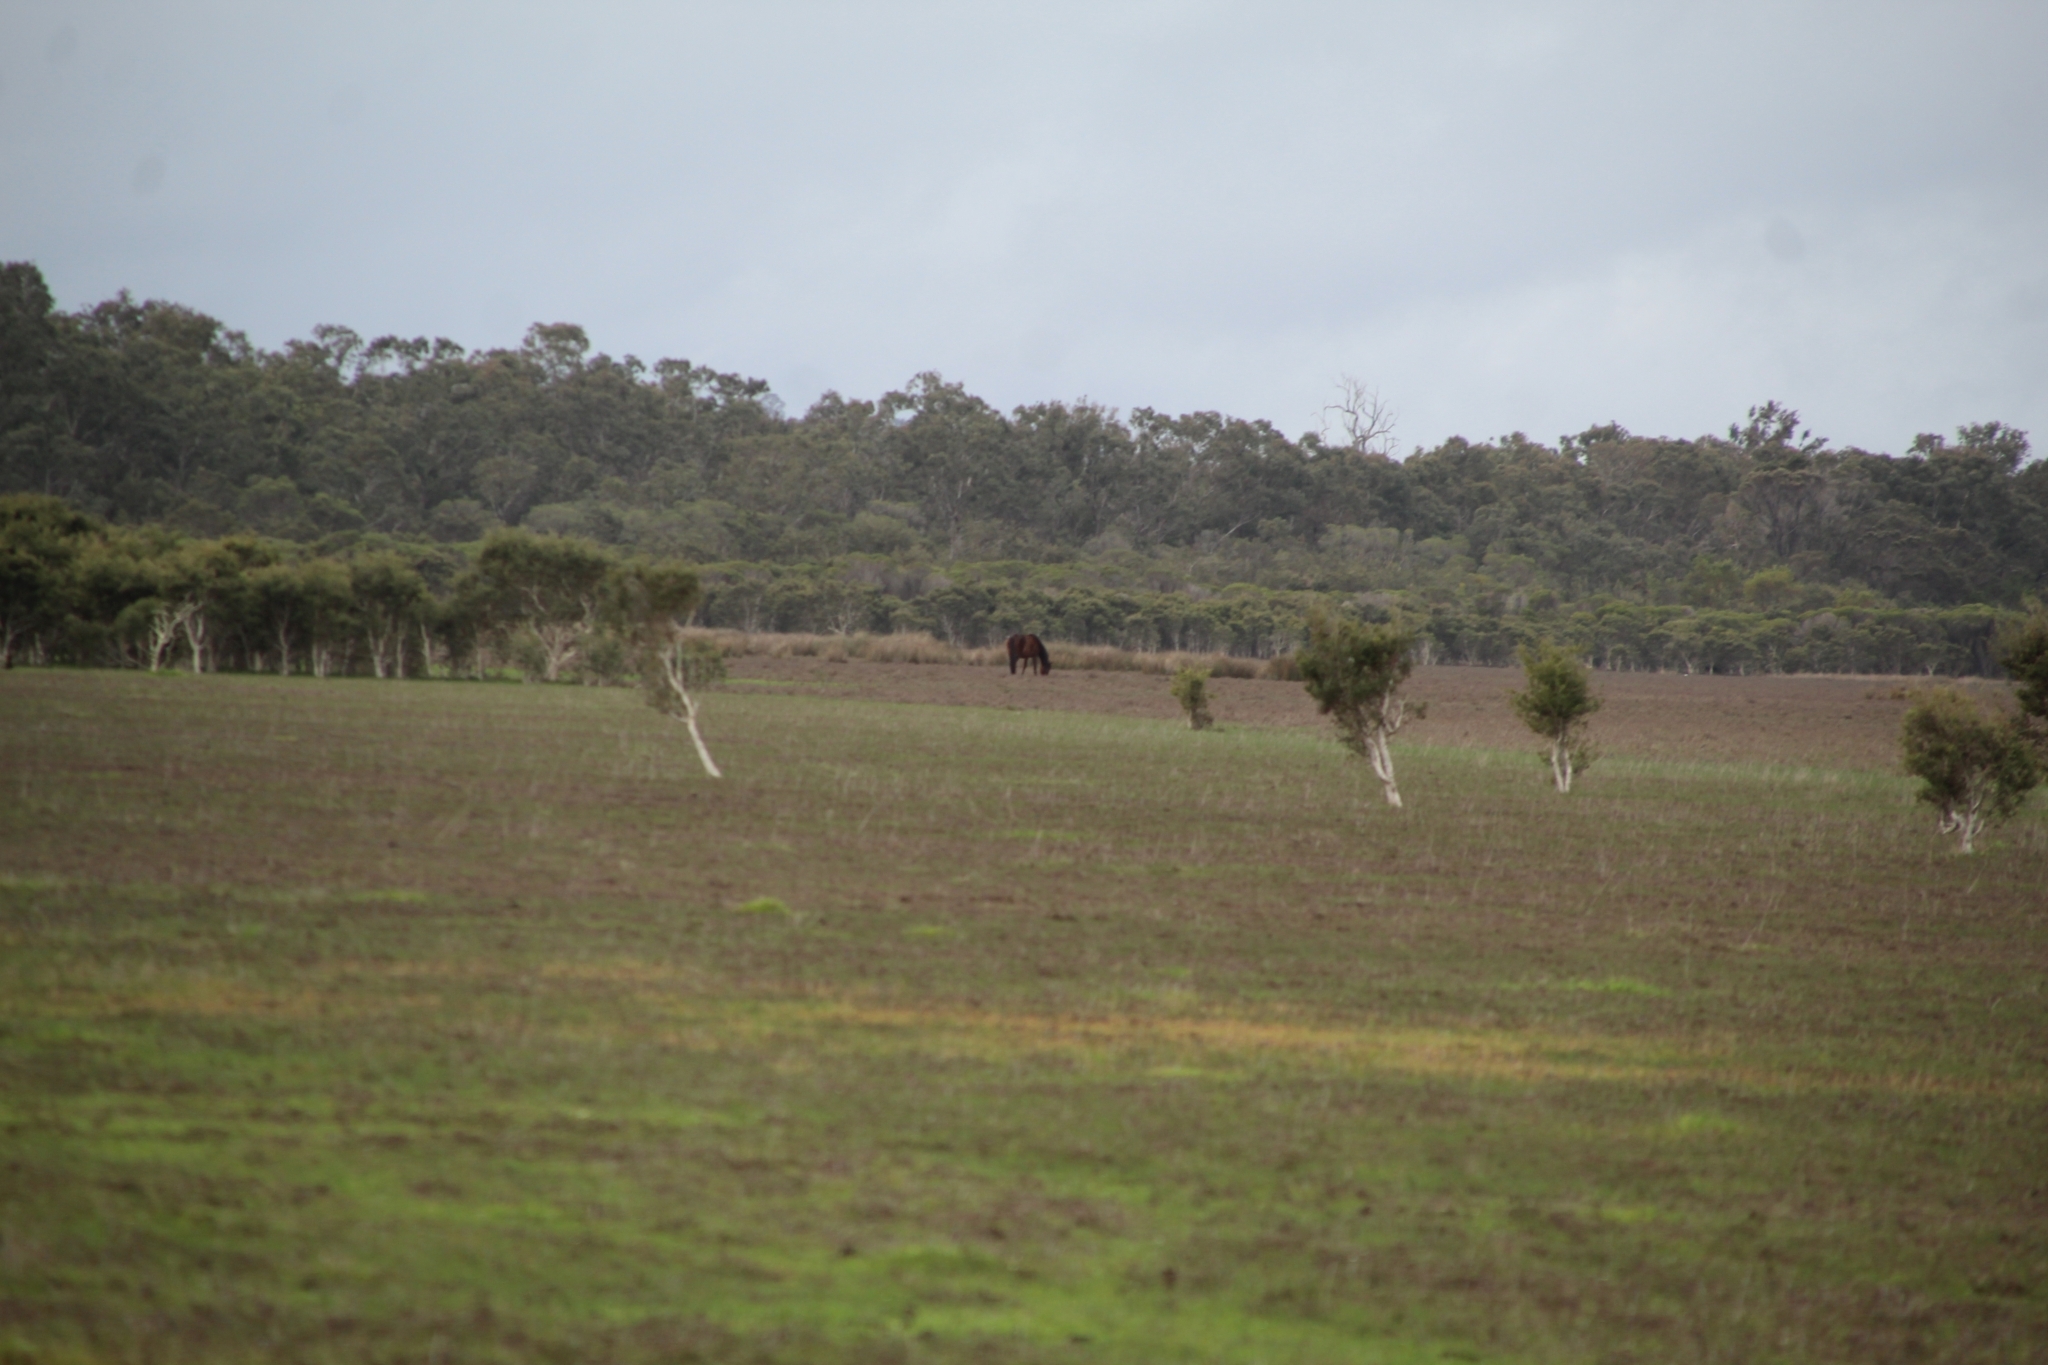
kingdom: Animalia
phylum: Chordata
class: Mammalia
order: Perissodactyla
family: Equidae
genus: Equus
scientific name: Equus caballus
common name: Horse
